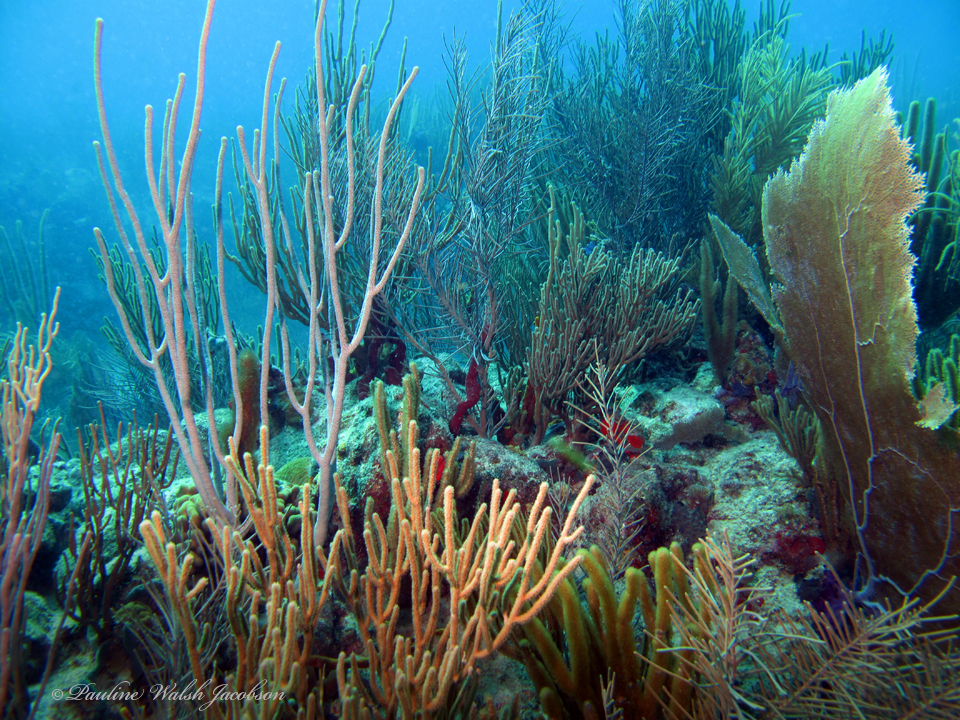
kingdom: Animalia
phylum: Cnidaria
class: Anthozoa
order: Malacalcyonacea
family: Gorgoniidae
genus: Gorgonia
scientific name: Gorgonia ventalina
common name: Common sea fan
